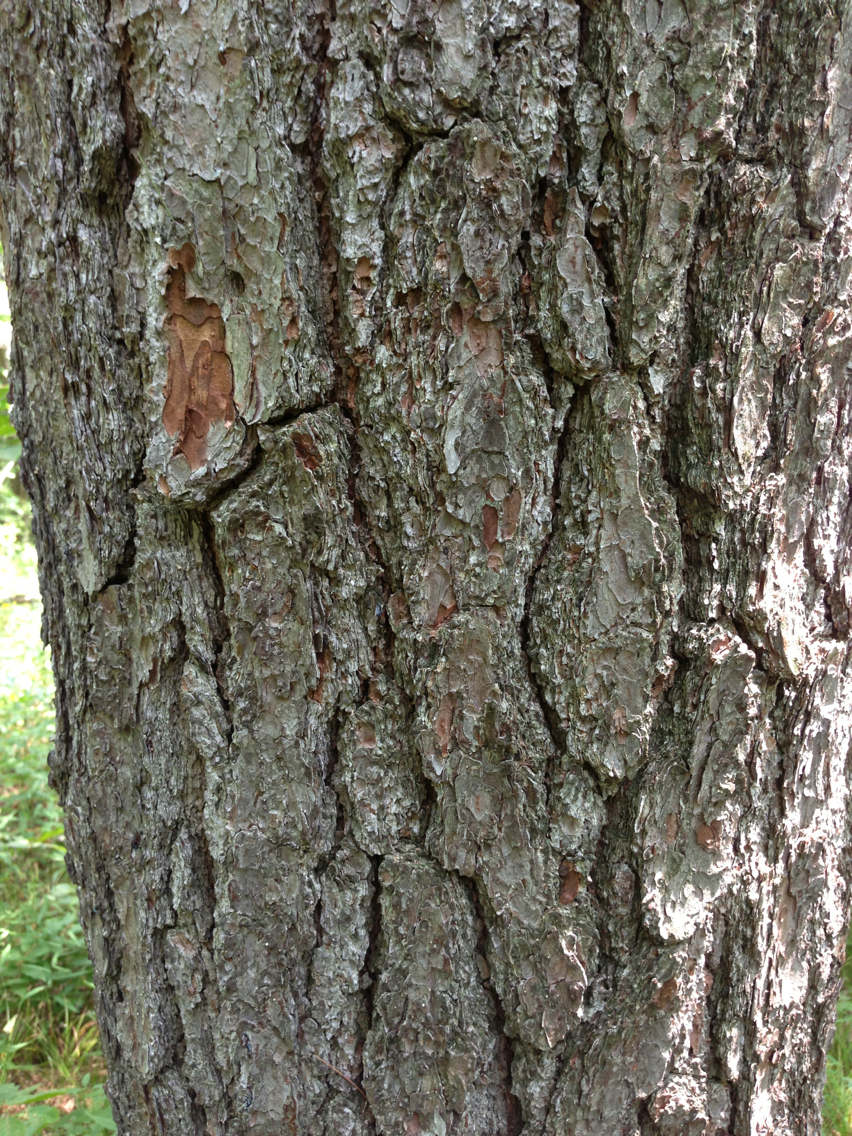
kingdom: Plantae
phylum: Tracheophyta
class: Pinopsida
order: Pinales
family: Pinaceae
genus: Pinus
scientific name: Pinus strobus
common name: Weymouth pine
